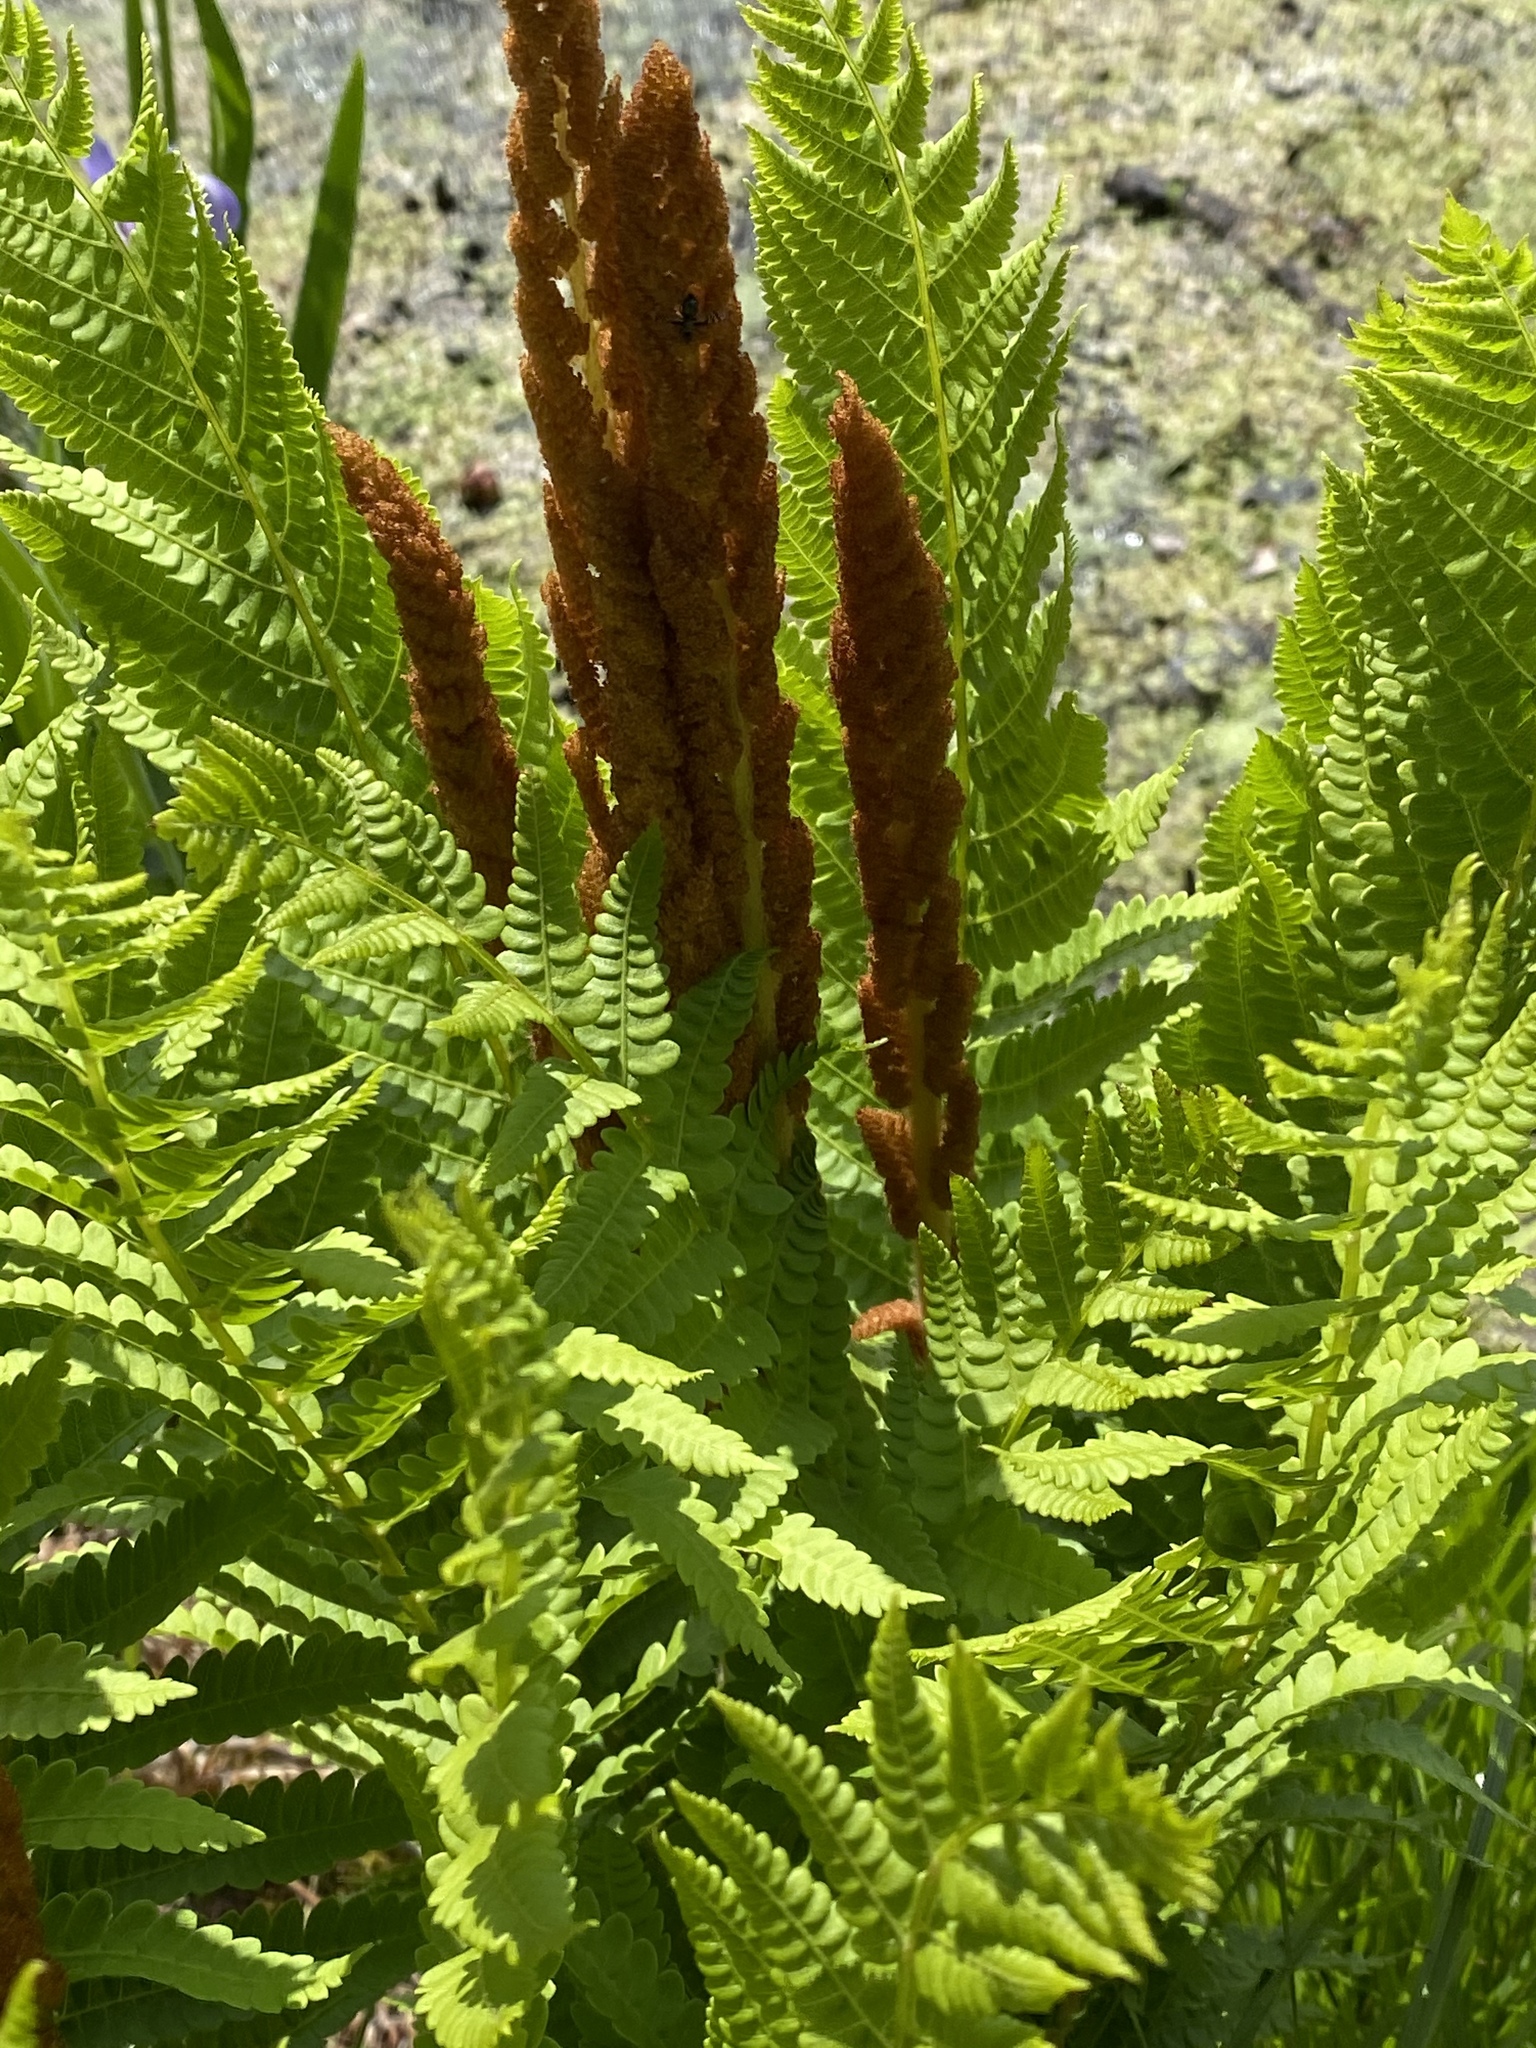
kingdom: Plantae
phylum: Tracheophyta
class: Polypodiopsida
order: Osmundales
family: Osmundaceae
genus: Osmundastrum
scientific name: Osmundastrum cinnamomeum
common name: Cinnamon fern
